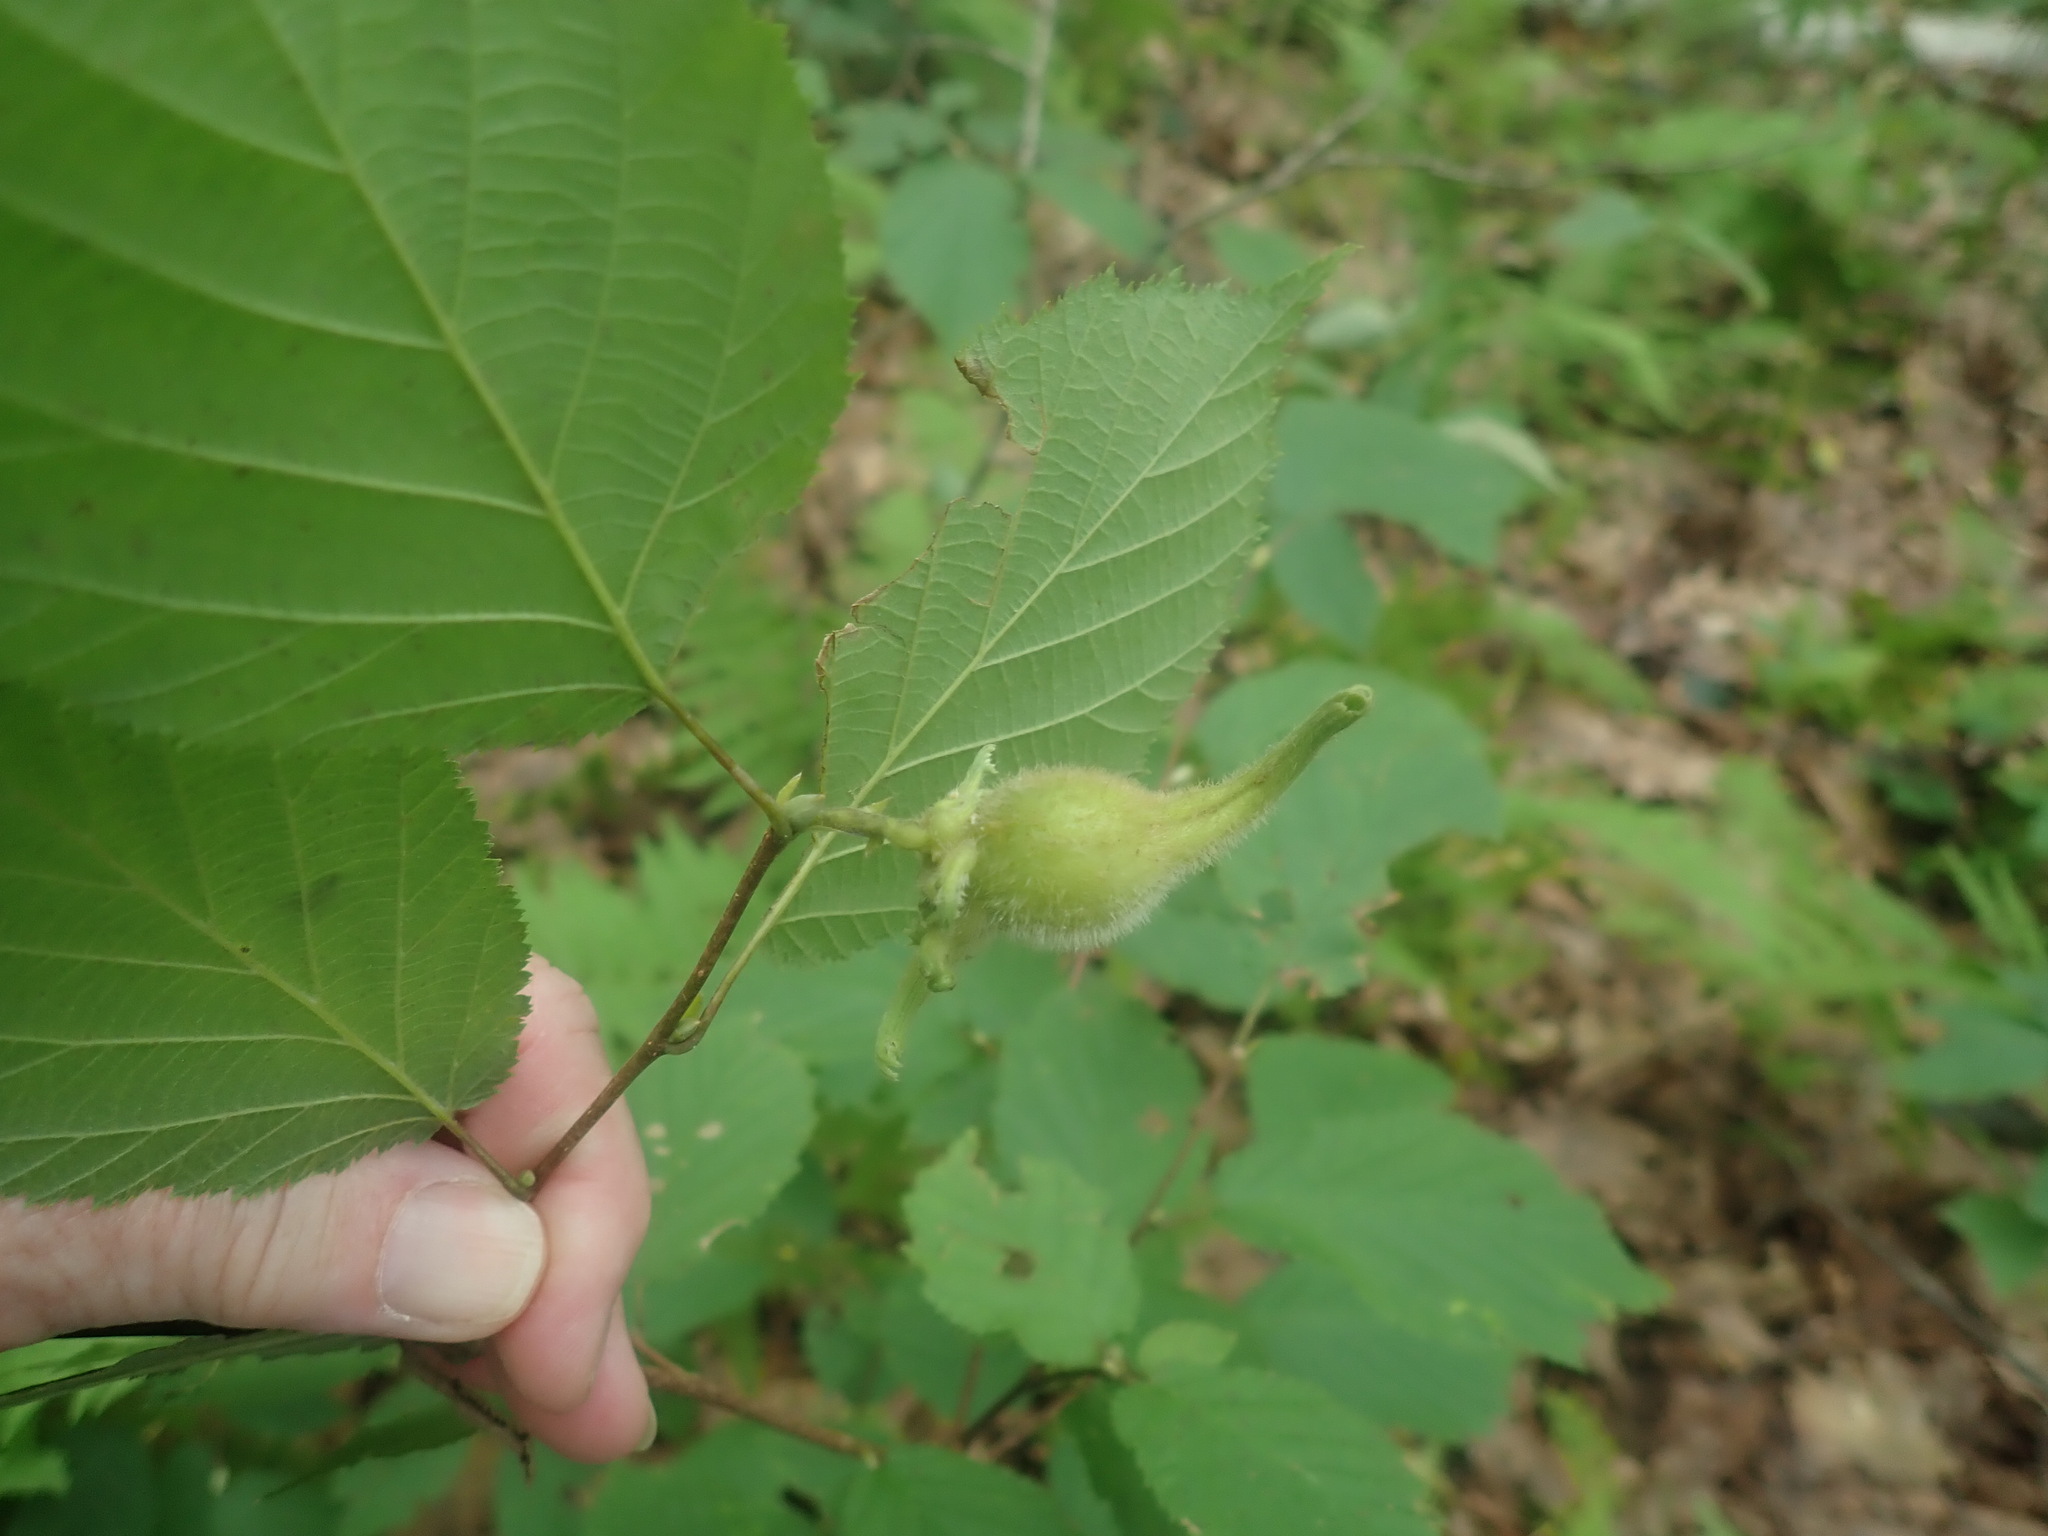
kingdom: Plantae
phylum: Tracheophyta
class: Magnoliopsida
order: Fagales
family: Betulaceae
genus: Corylus
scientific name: Corylus cornuta
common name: Beaked hazel
